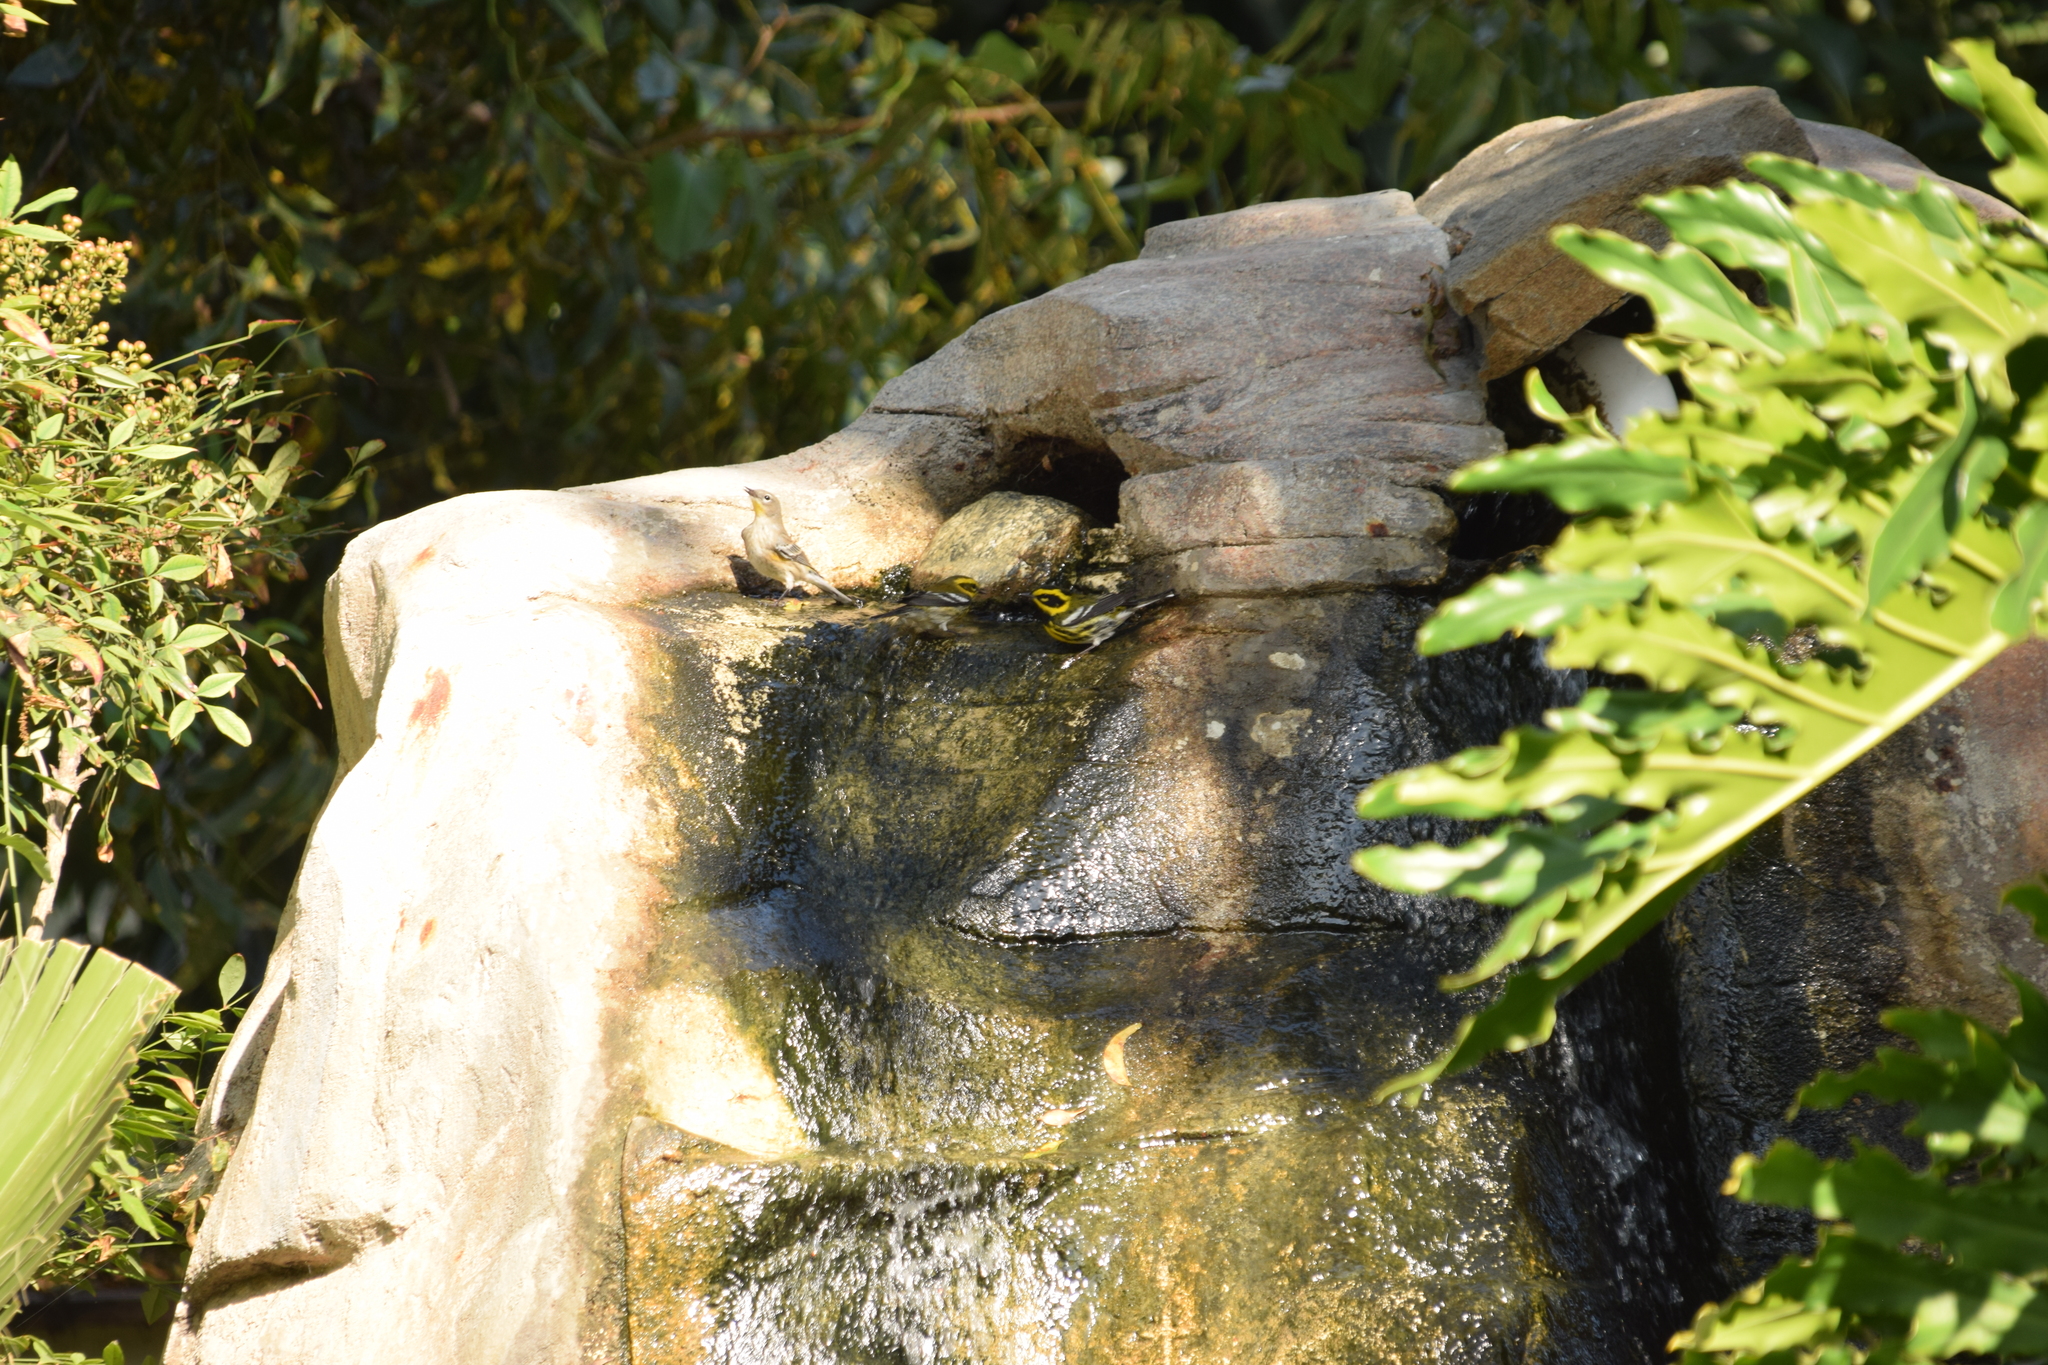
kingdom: Animalia
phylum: Chordata
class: Aves
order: Passeriformes
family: Parulidae
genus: Setophaga
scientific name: Setophaga townsendi
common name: Townsend's warbler
